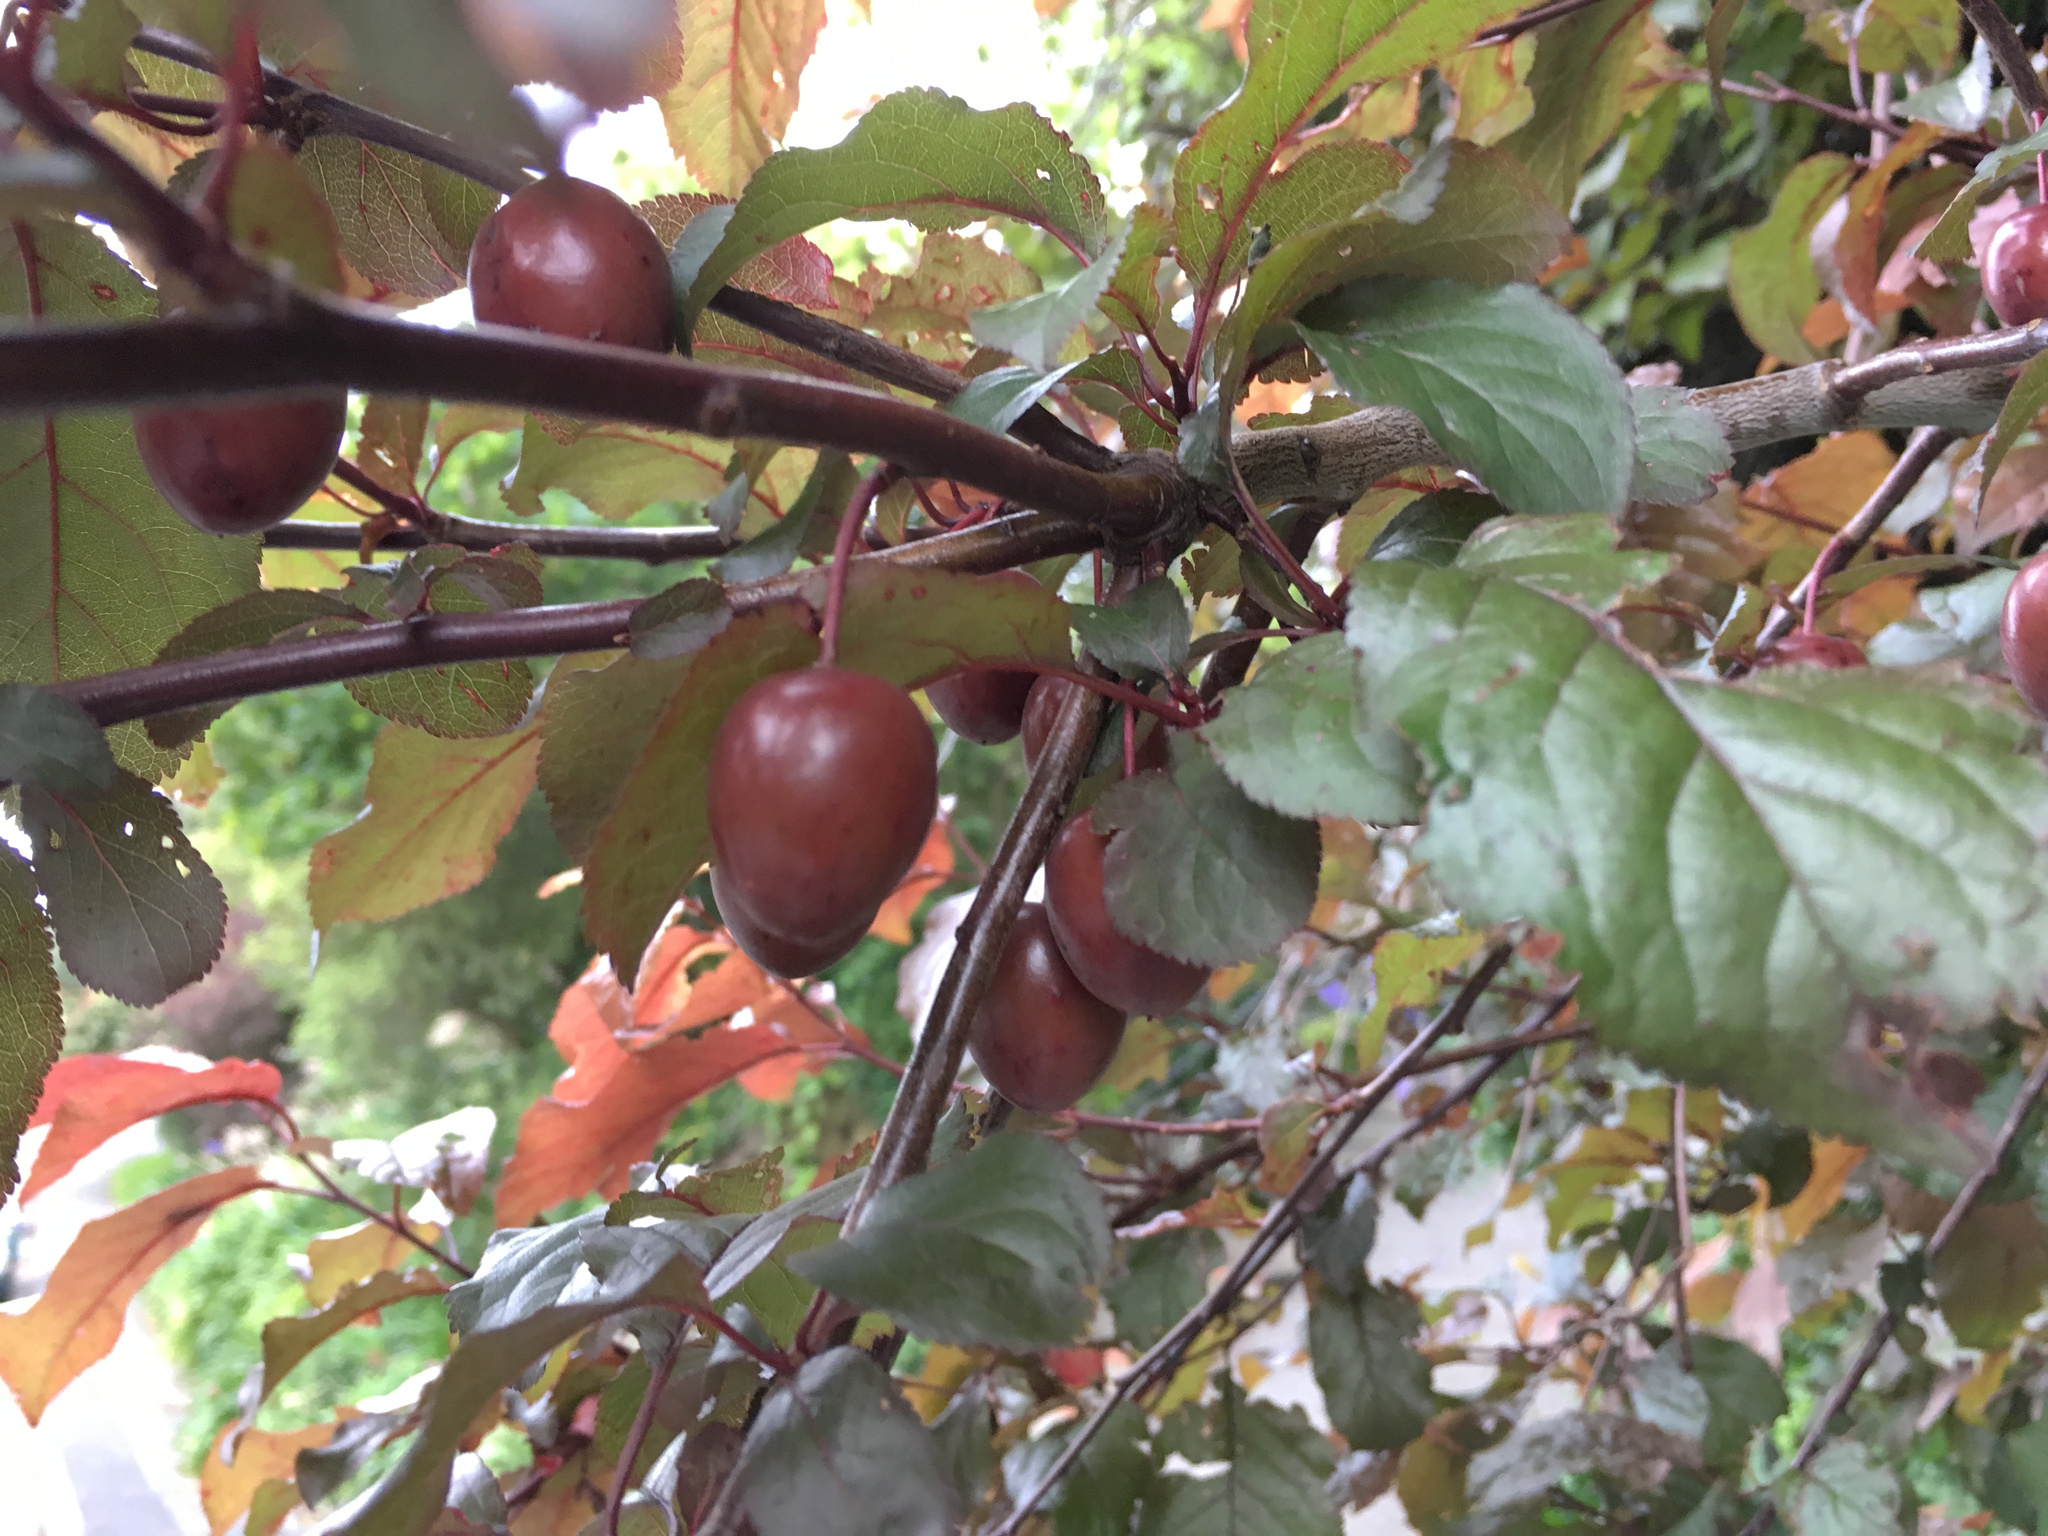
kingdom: Plantae
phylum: Tracheophyta
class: Magnoliopsida
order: Rosales
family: Rosaceae
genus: Prunus
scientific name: Prunus cerasifera
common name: Cherry plum
